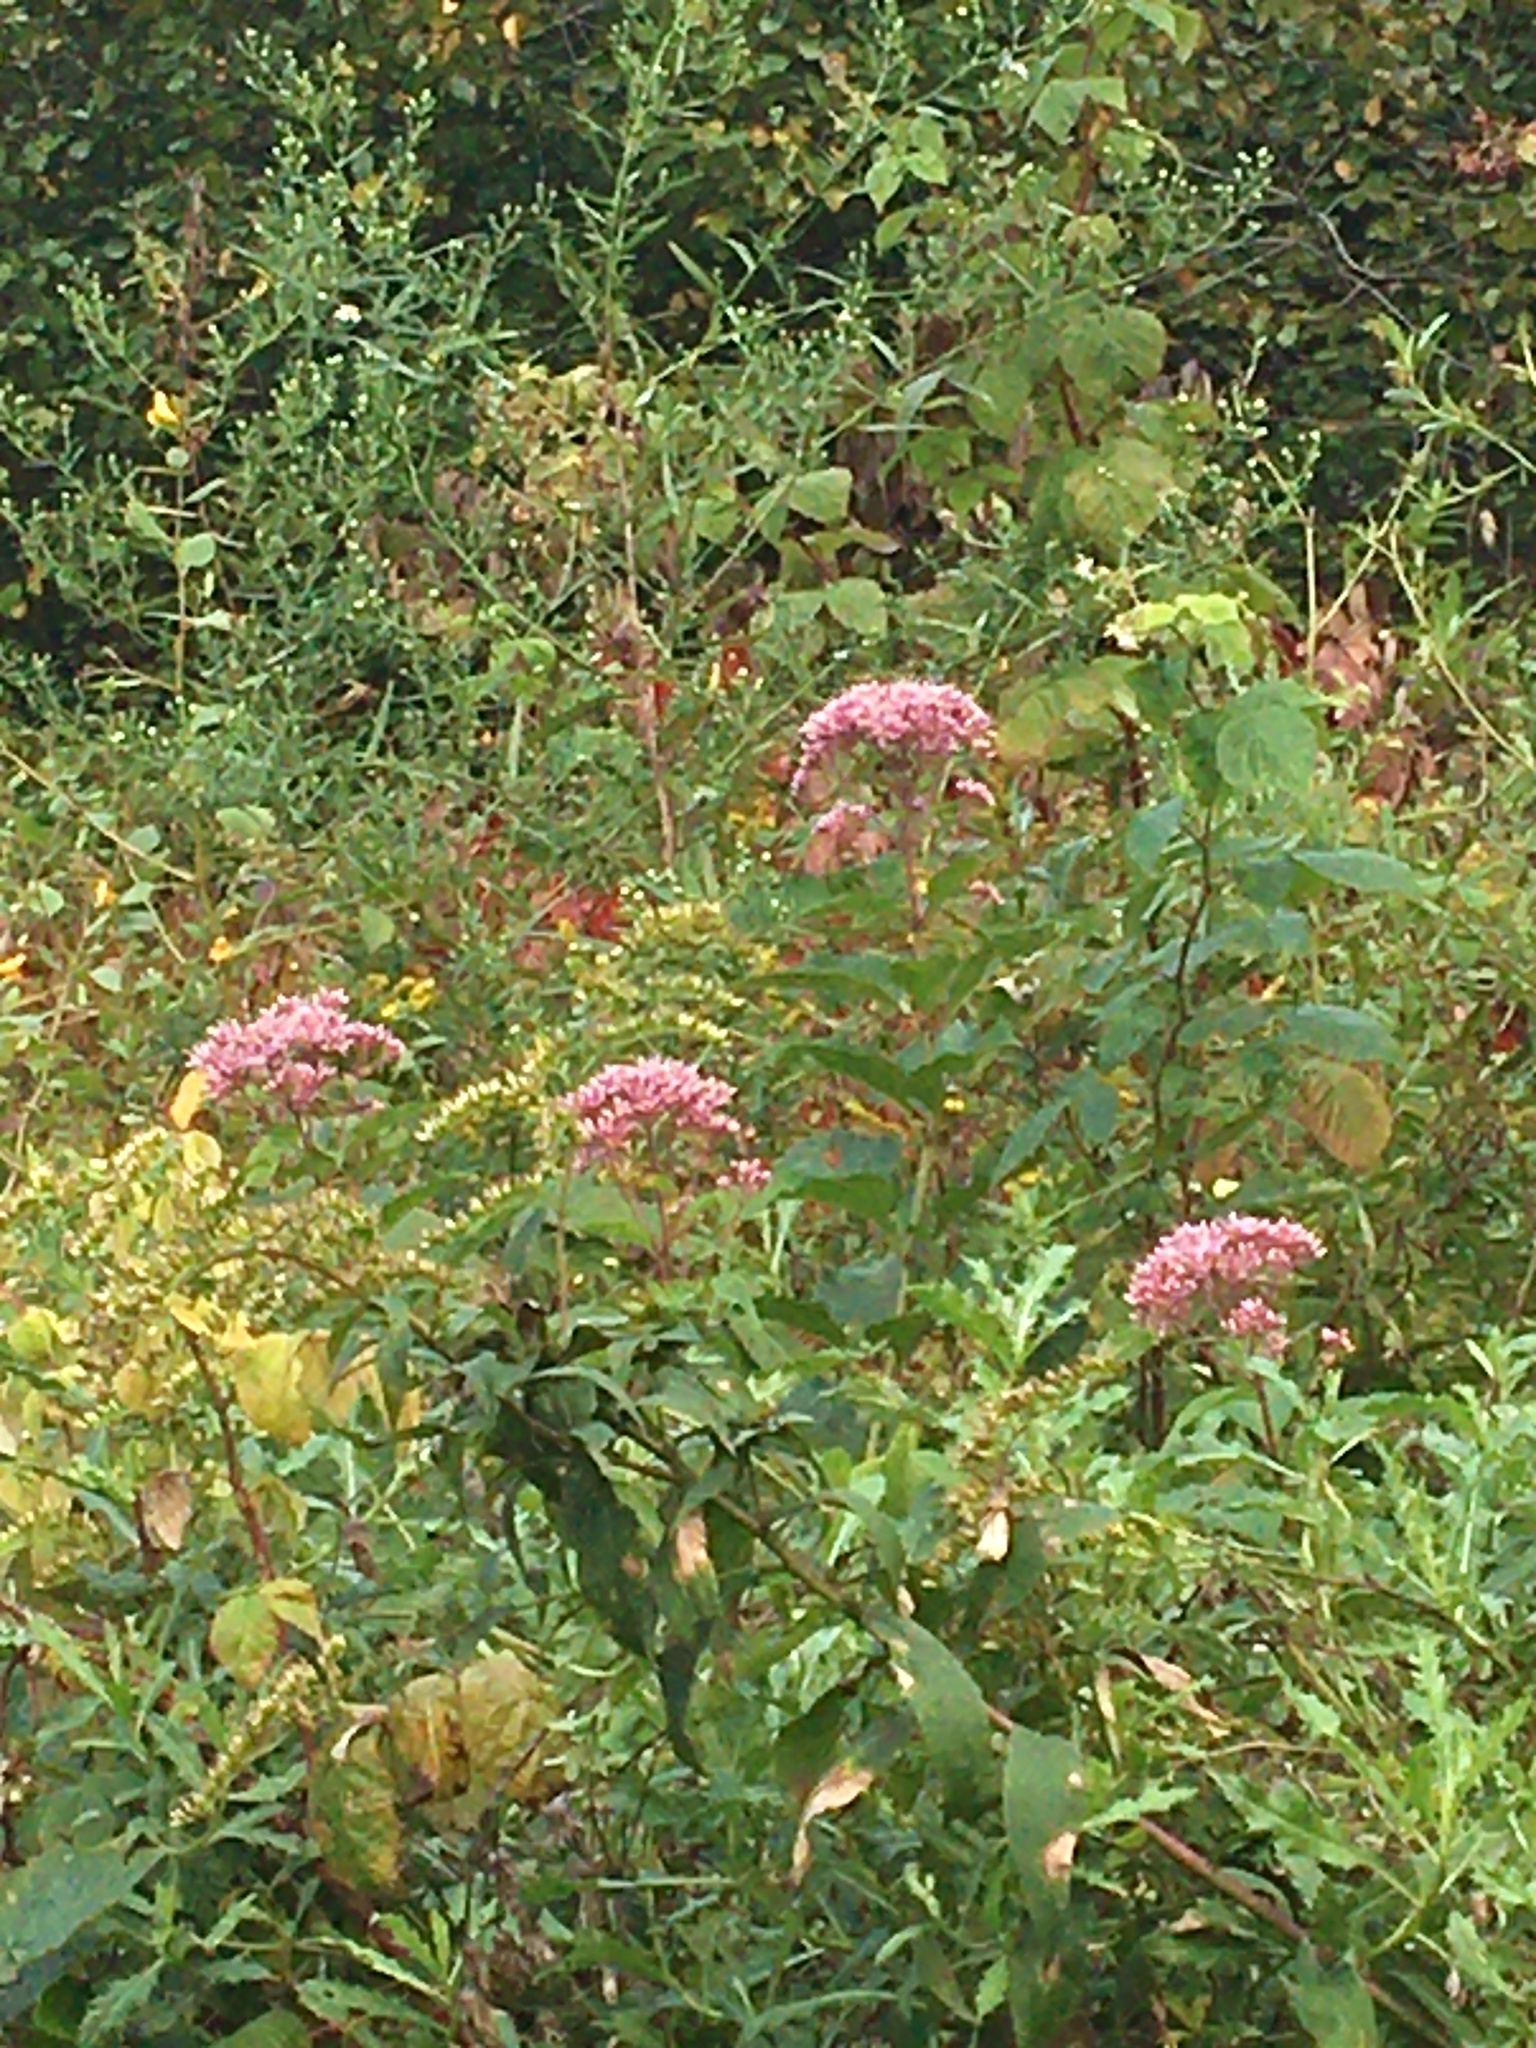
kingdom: Plantae
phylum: Tracheophyta
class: Magnoliopsida
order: Asterales
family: Asteraceae
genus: Eutrochium
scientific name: Eutrochium
